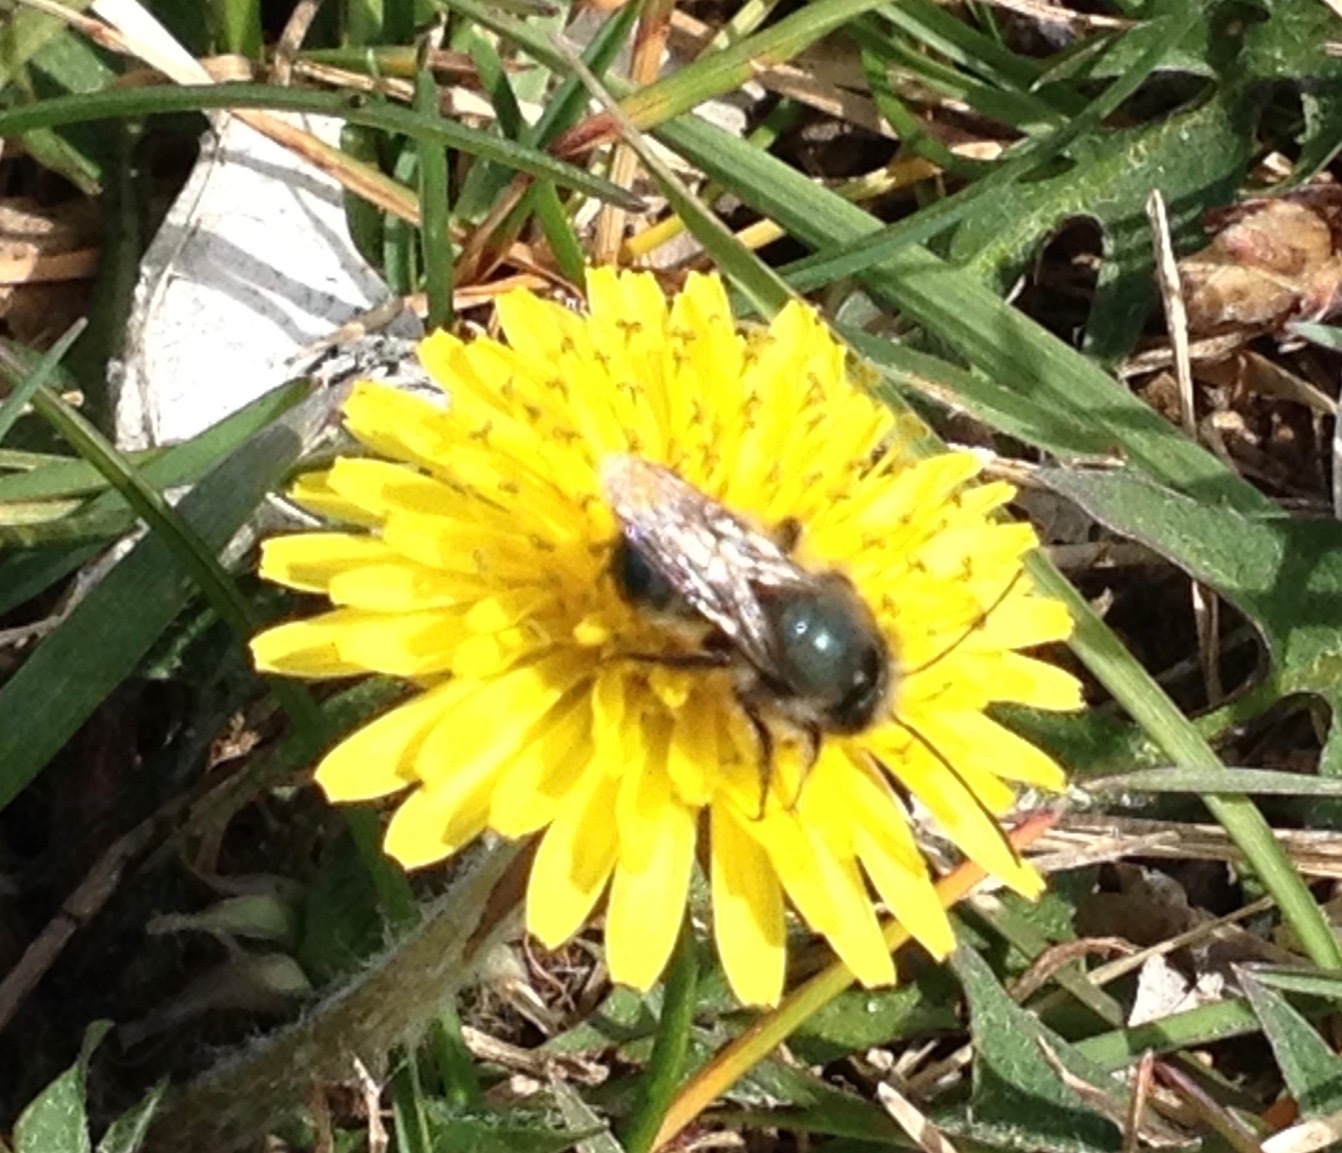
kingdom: Animalia
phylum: Arthropoda
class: Insecta
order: Hymenoptera
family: Megachilidae
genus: Osmia
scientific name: Osmia lignaria
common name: Blue orchard bee
